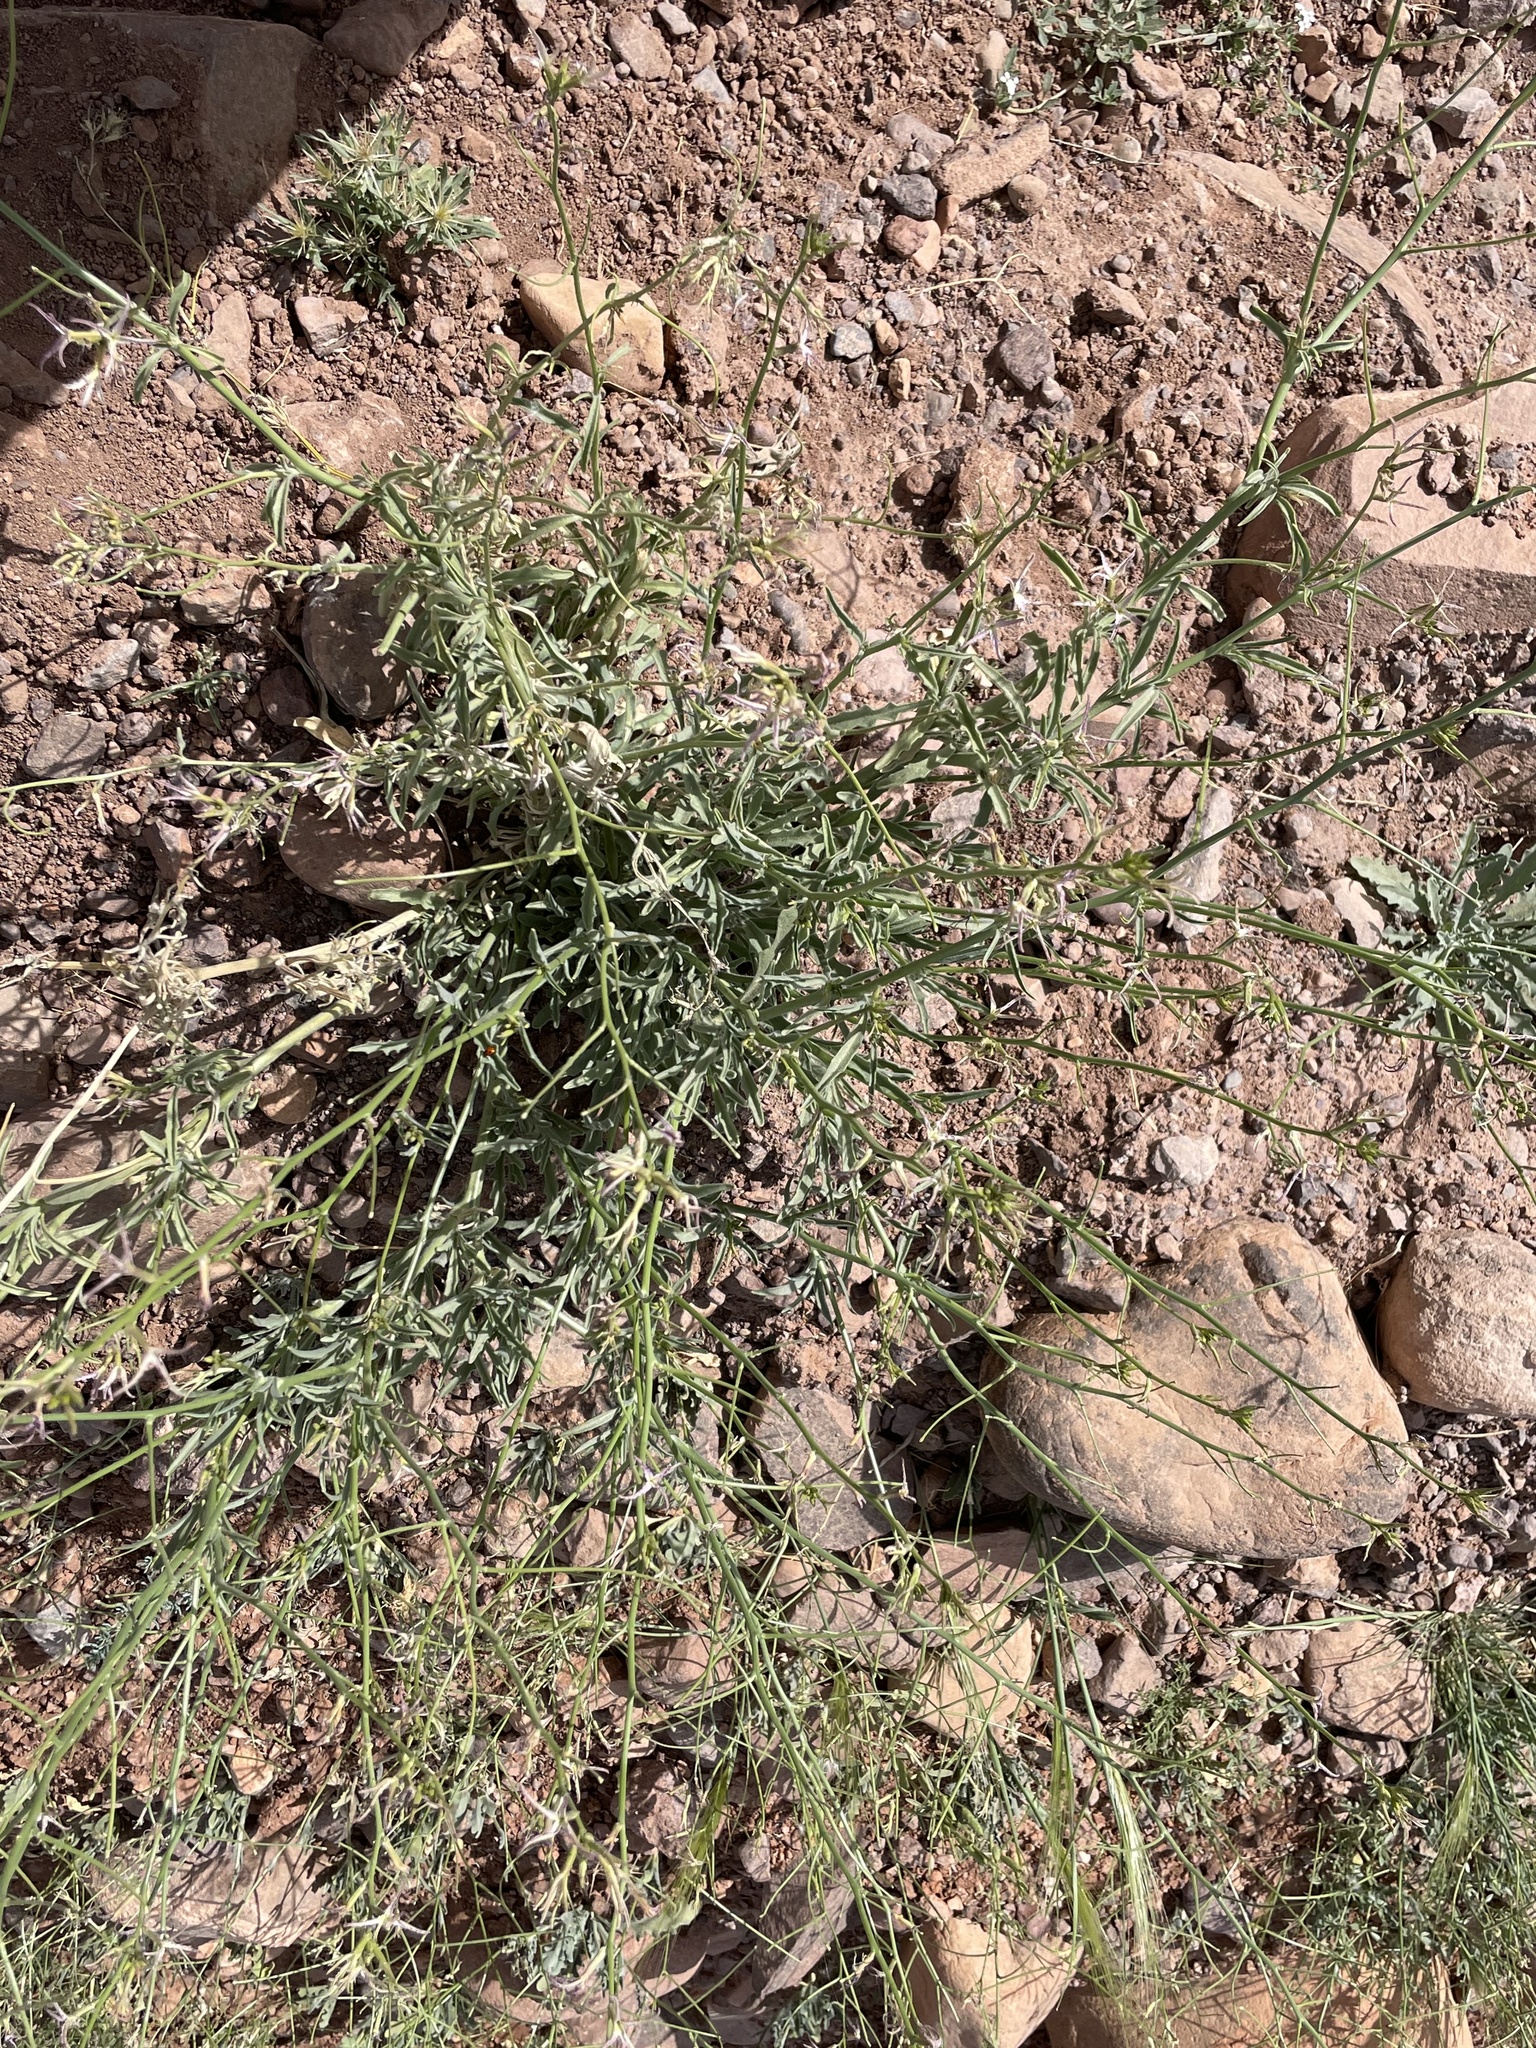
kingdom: Plantae
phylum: Tracheophyta
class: Magnoliopsida
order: Brassicales
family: Brassicaceae
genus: Matthiola
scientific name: Matthiola maroccana
